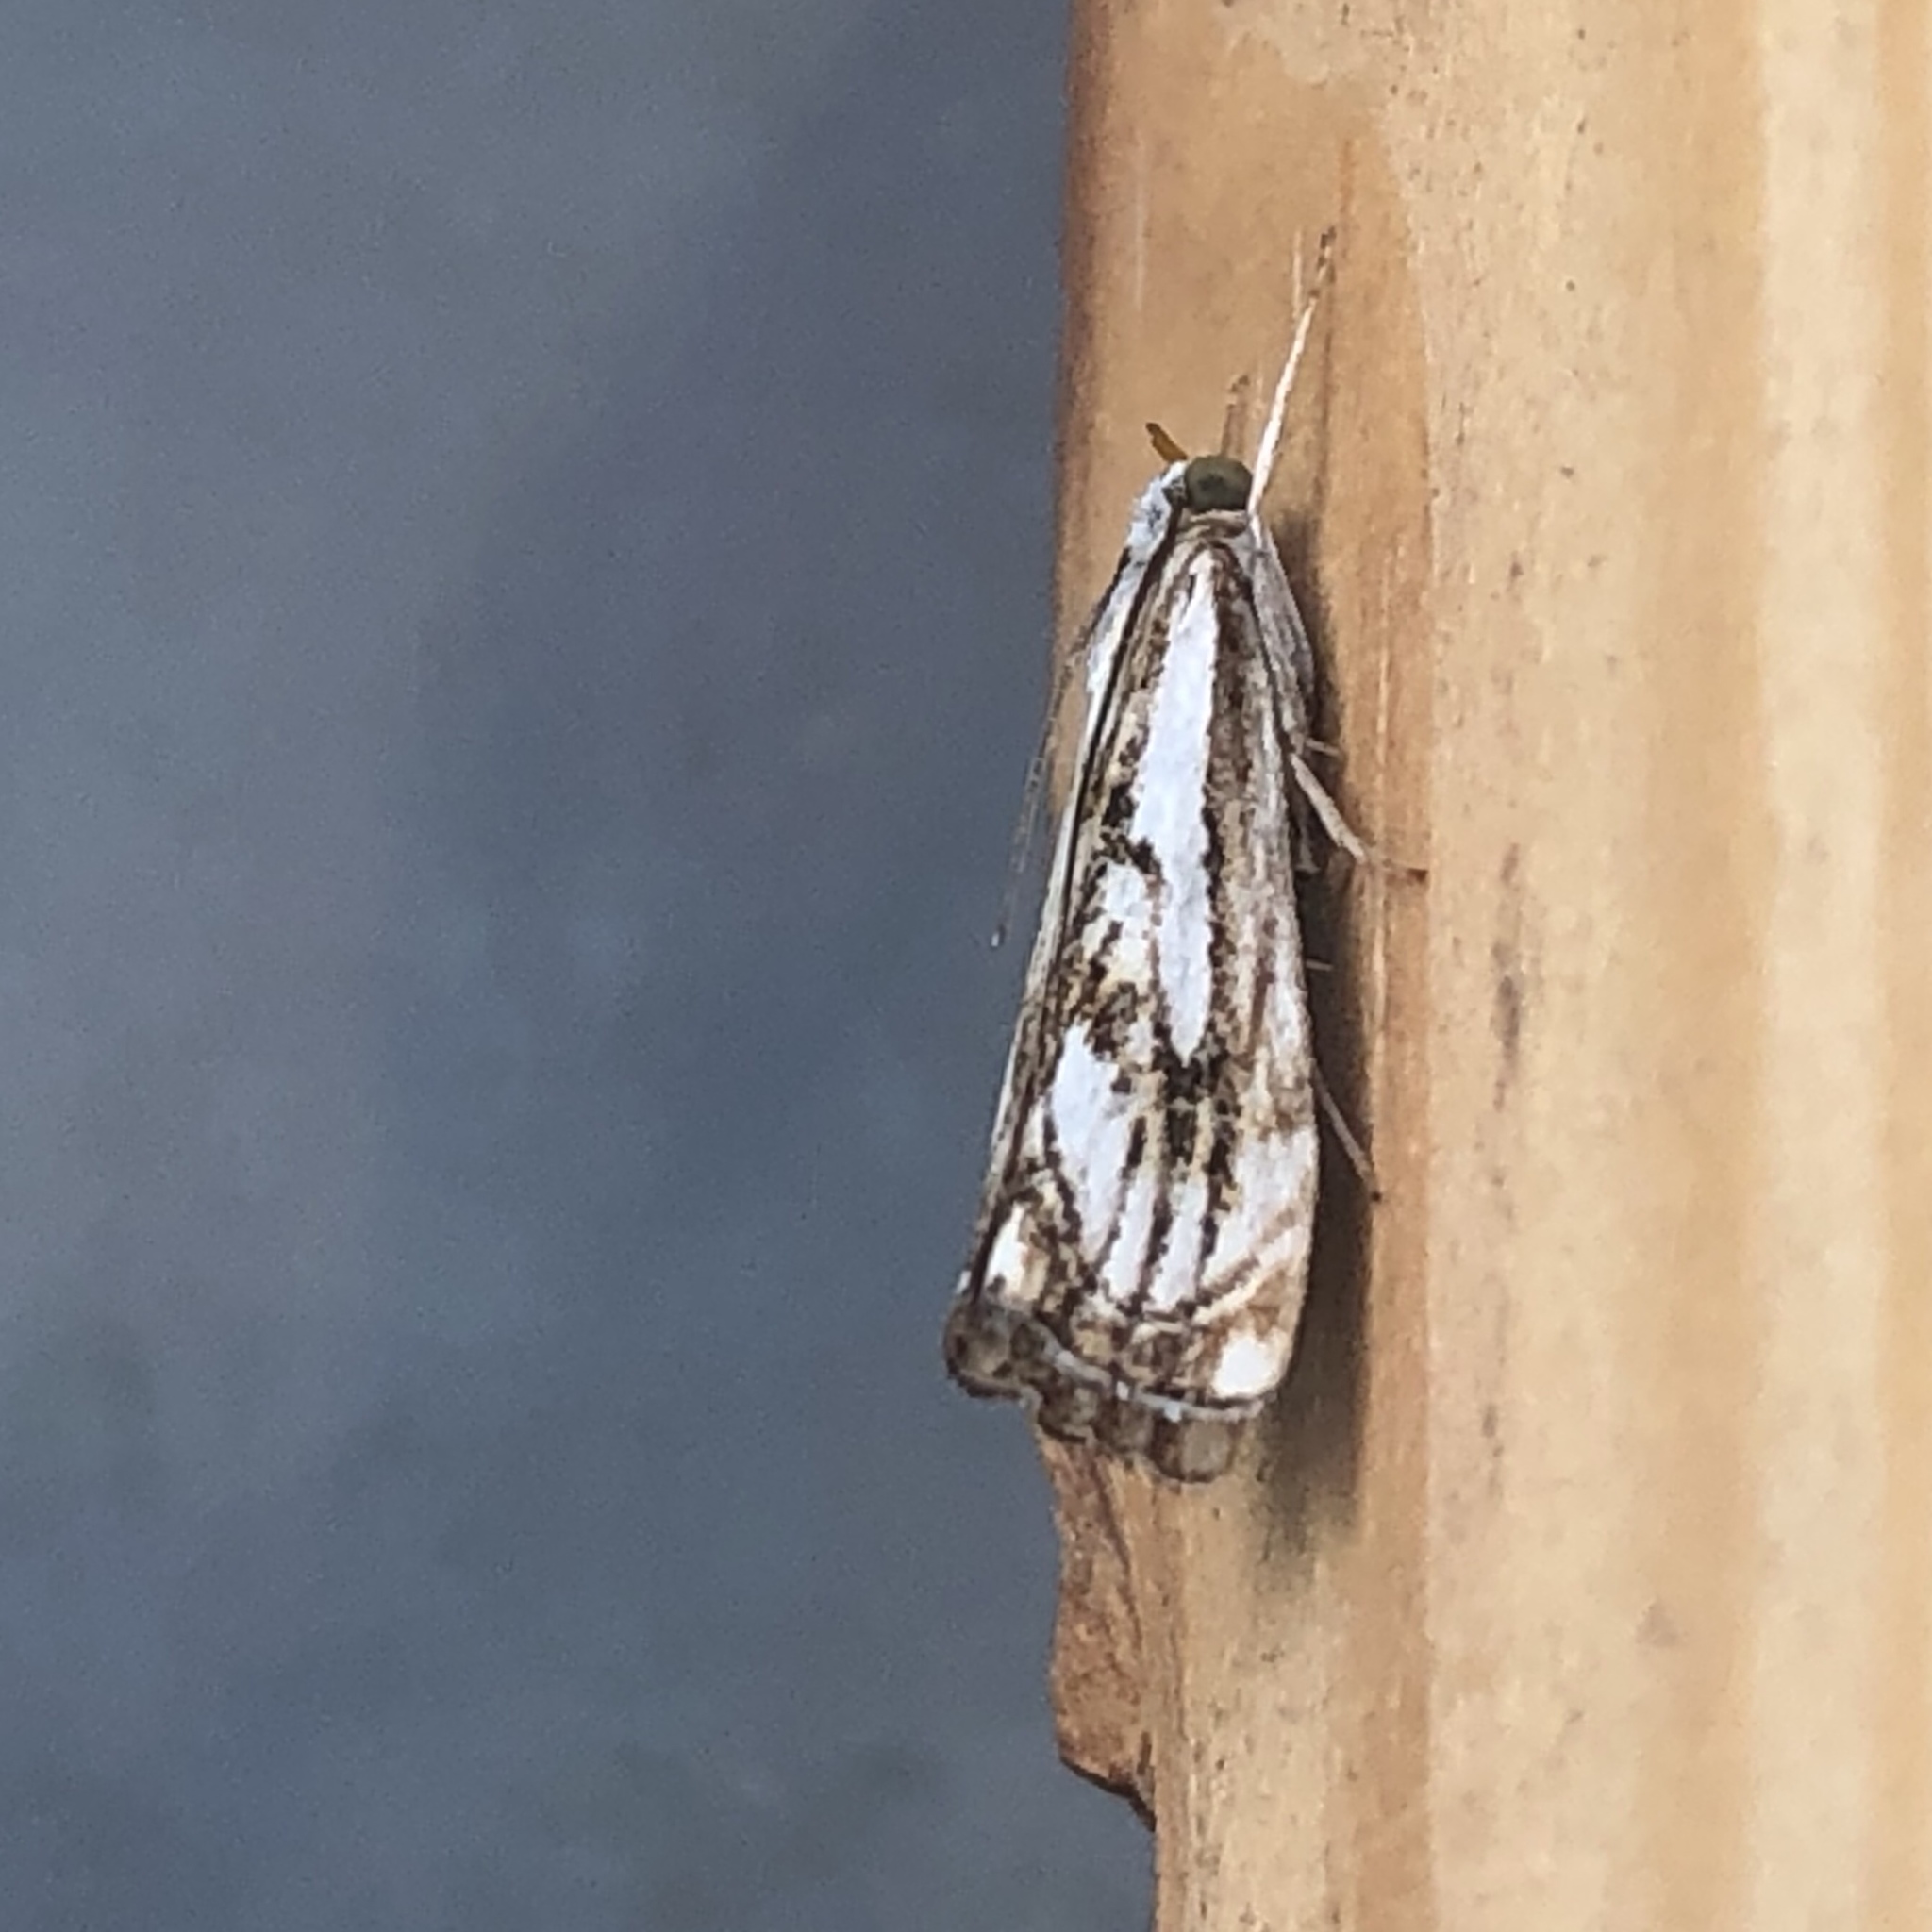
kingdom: Animalia
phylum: Arthropoda
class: Insecta
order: Lepidoptera
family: Crambidae
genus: Catoptria
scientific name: Catoptria falsella
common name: Chequered grass-veneer
